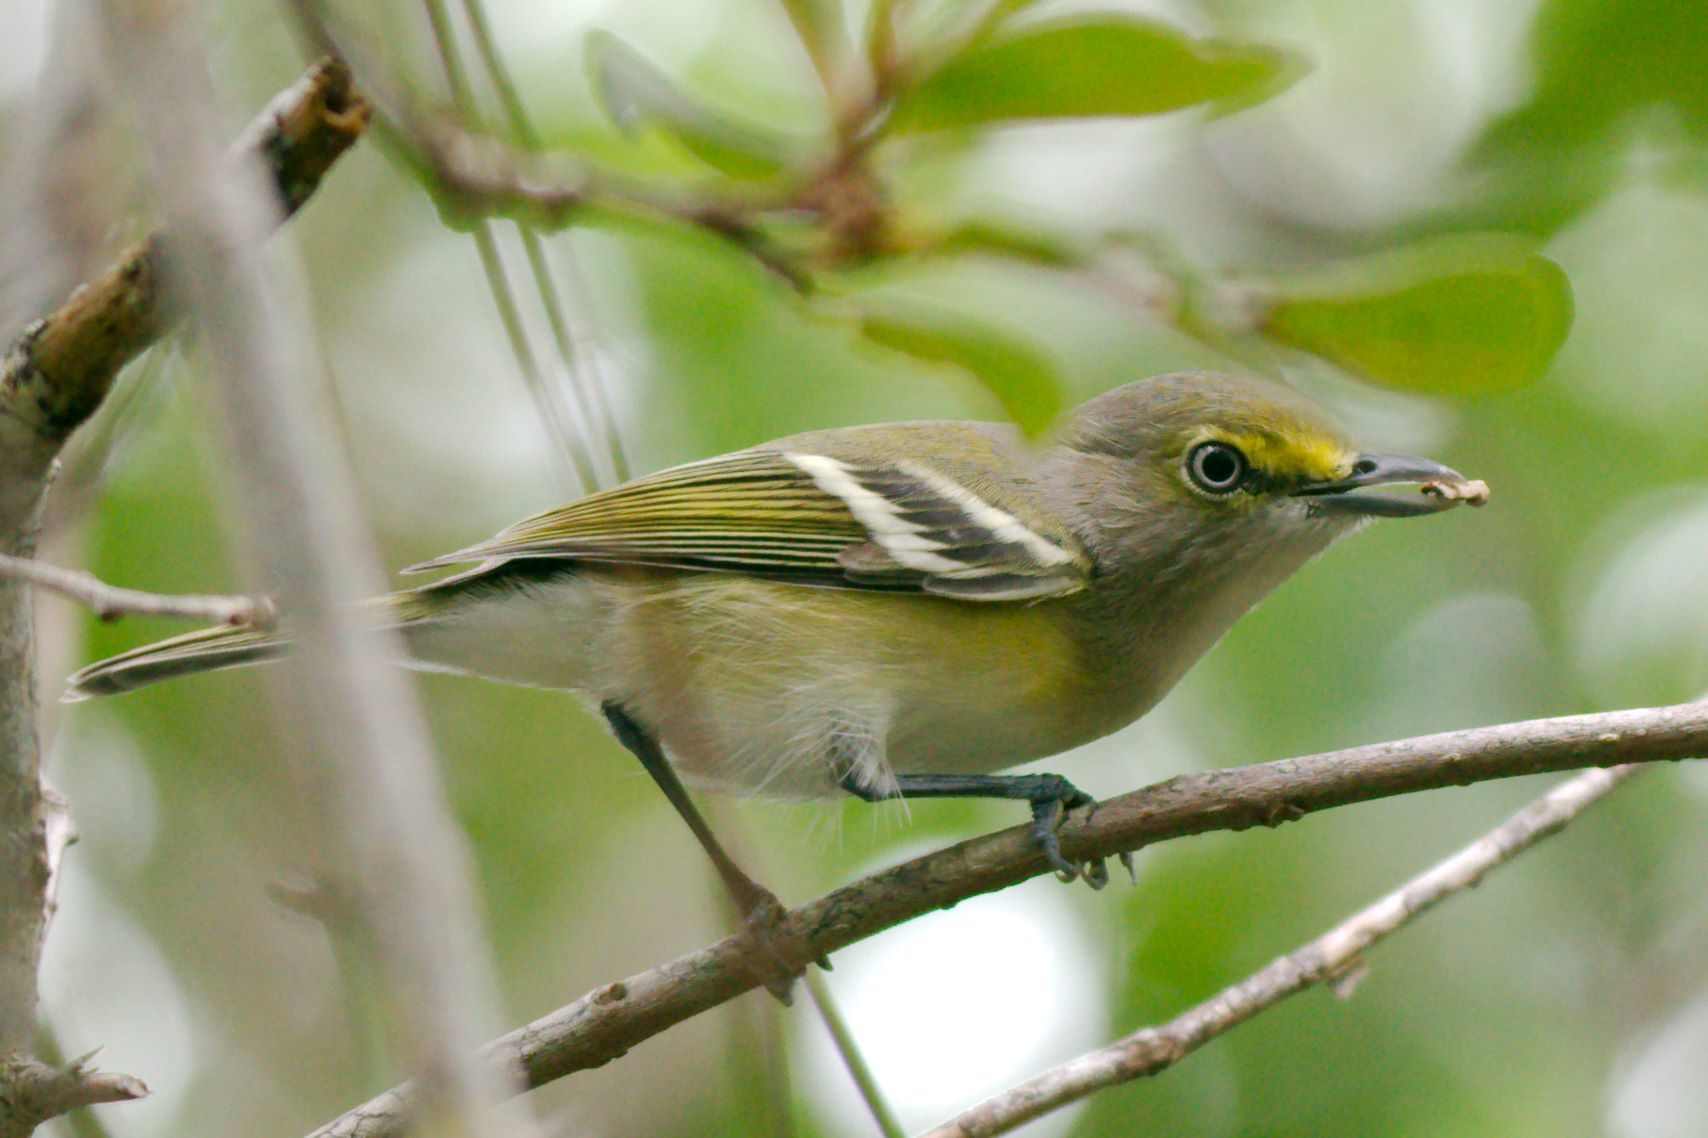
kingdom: Animalia
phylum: Chordata
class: Aves
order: Passeriformes
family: Vireonidae
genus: Vireo
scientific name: Vireo griseus
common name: White-eyed vireo
